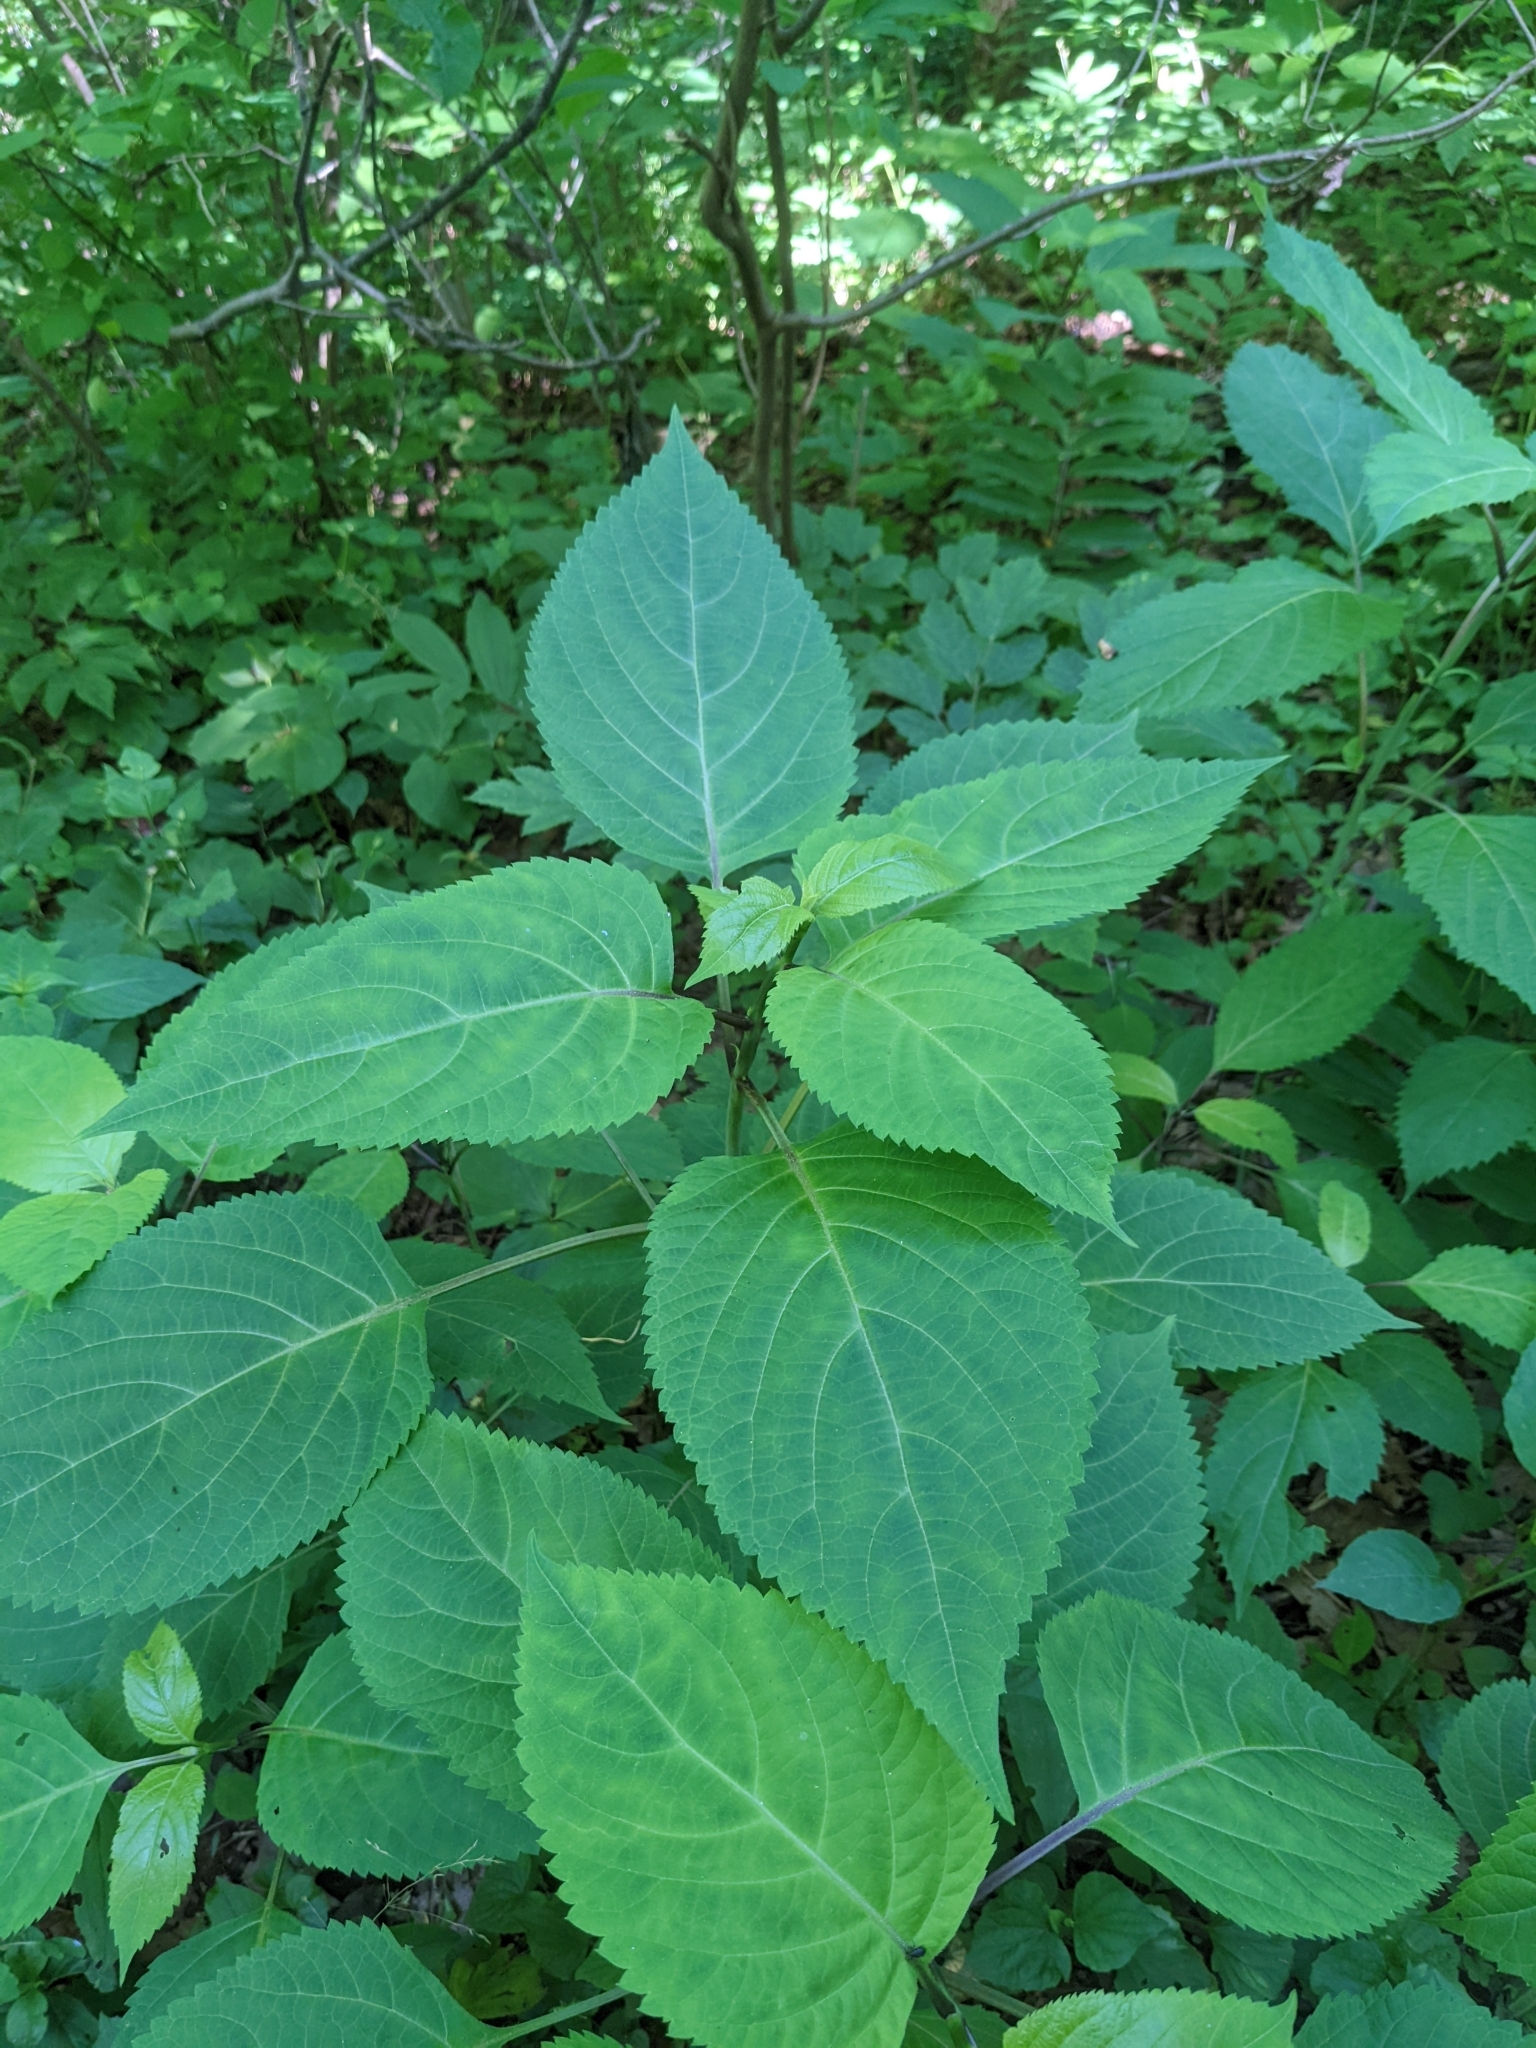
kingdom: Plantae
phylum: Tracheophyta
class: Magnoliopsida
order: Lamiales
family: Lamiaceae
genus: Collinsonia
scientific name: Collinsonia canadensis
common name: Northern horsebalm
